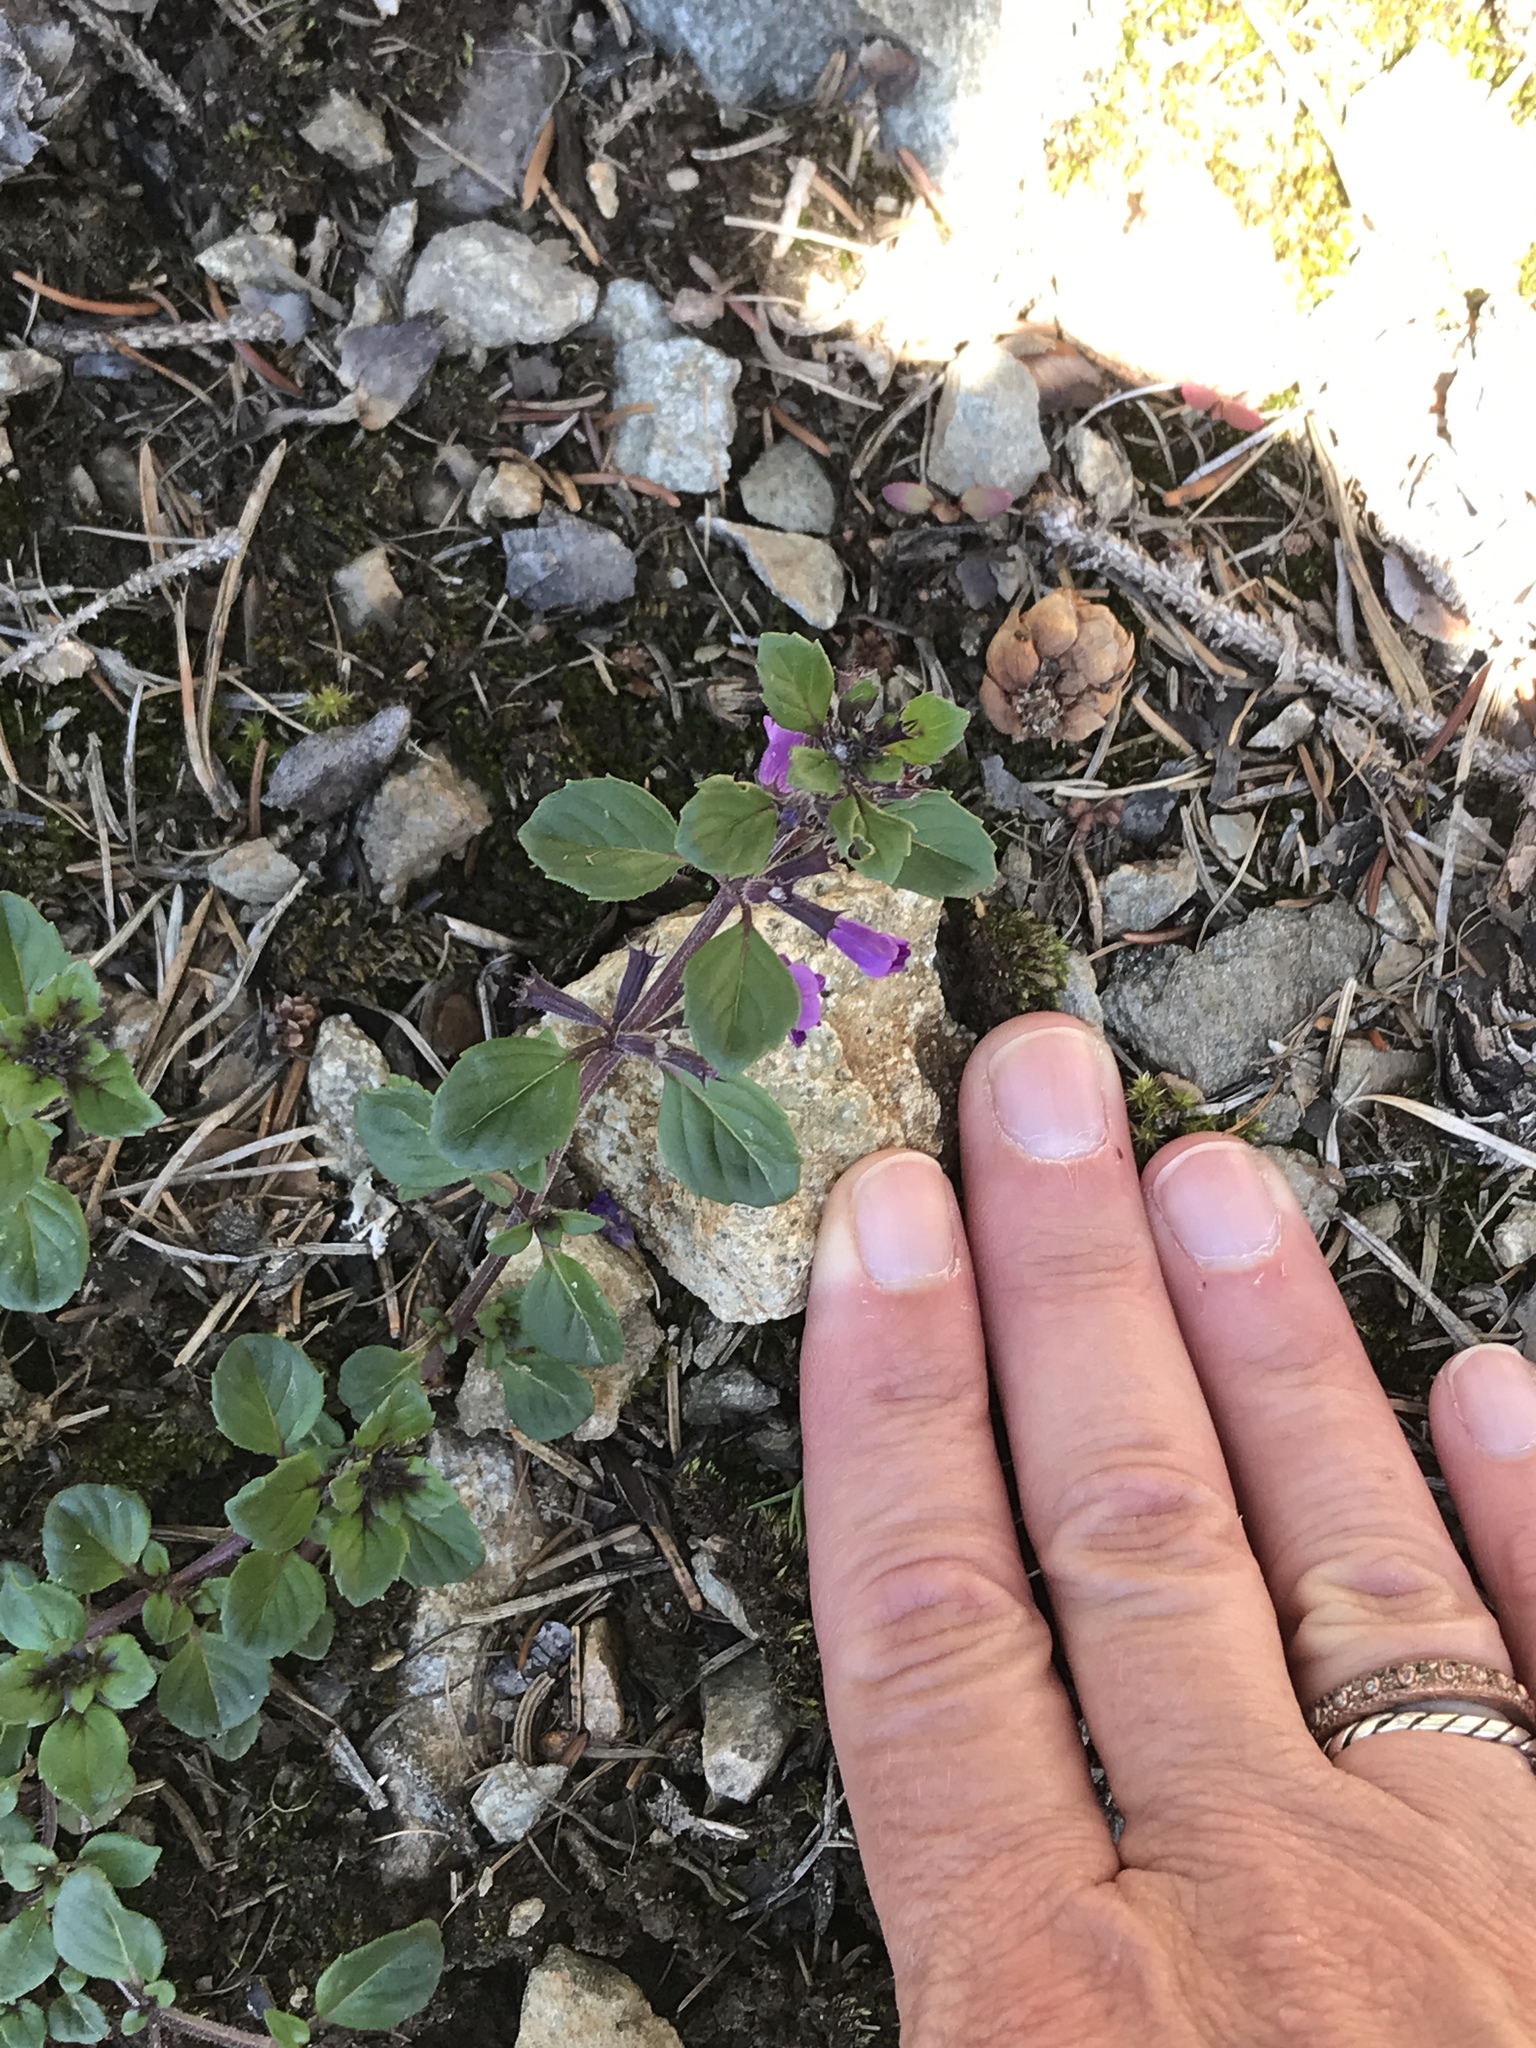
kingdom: Plantae
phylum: Tracheophyta
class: Magnoliopsida
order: Lamiales
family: Lamiaceae
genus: Clinopodium
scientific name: Clinopodium alpinum
